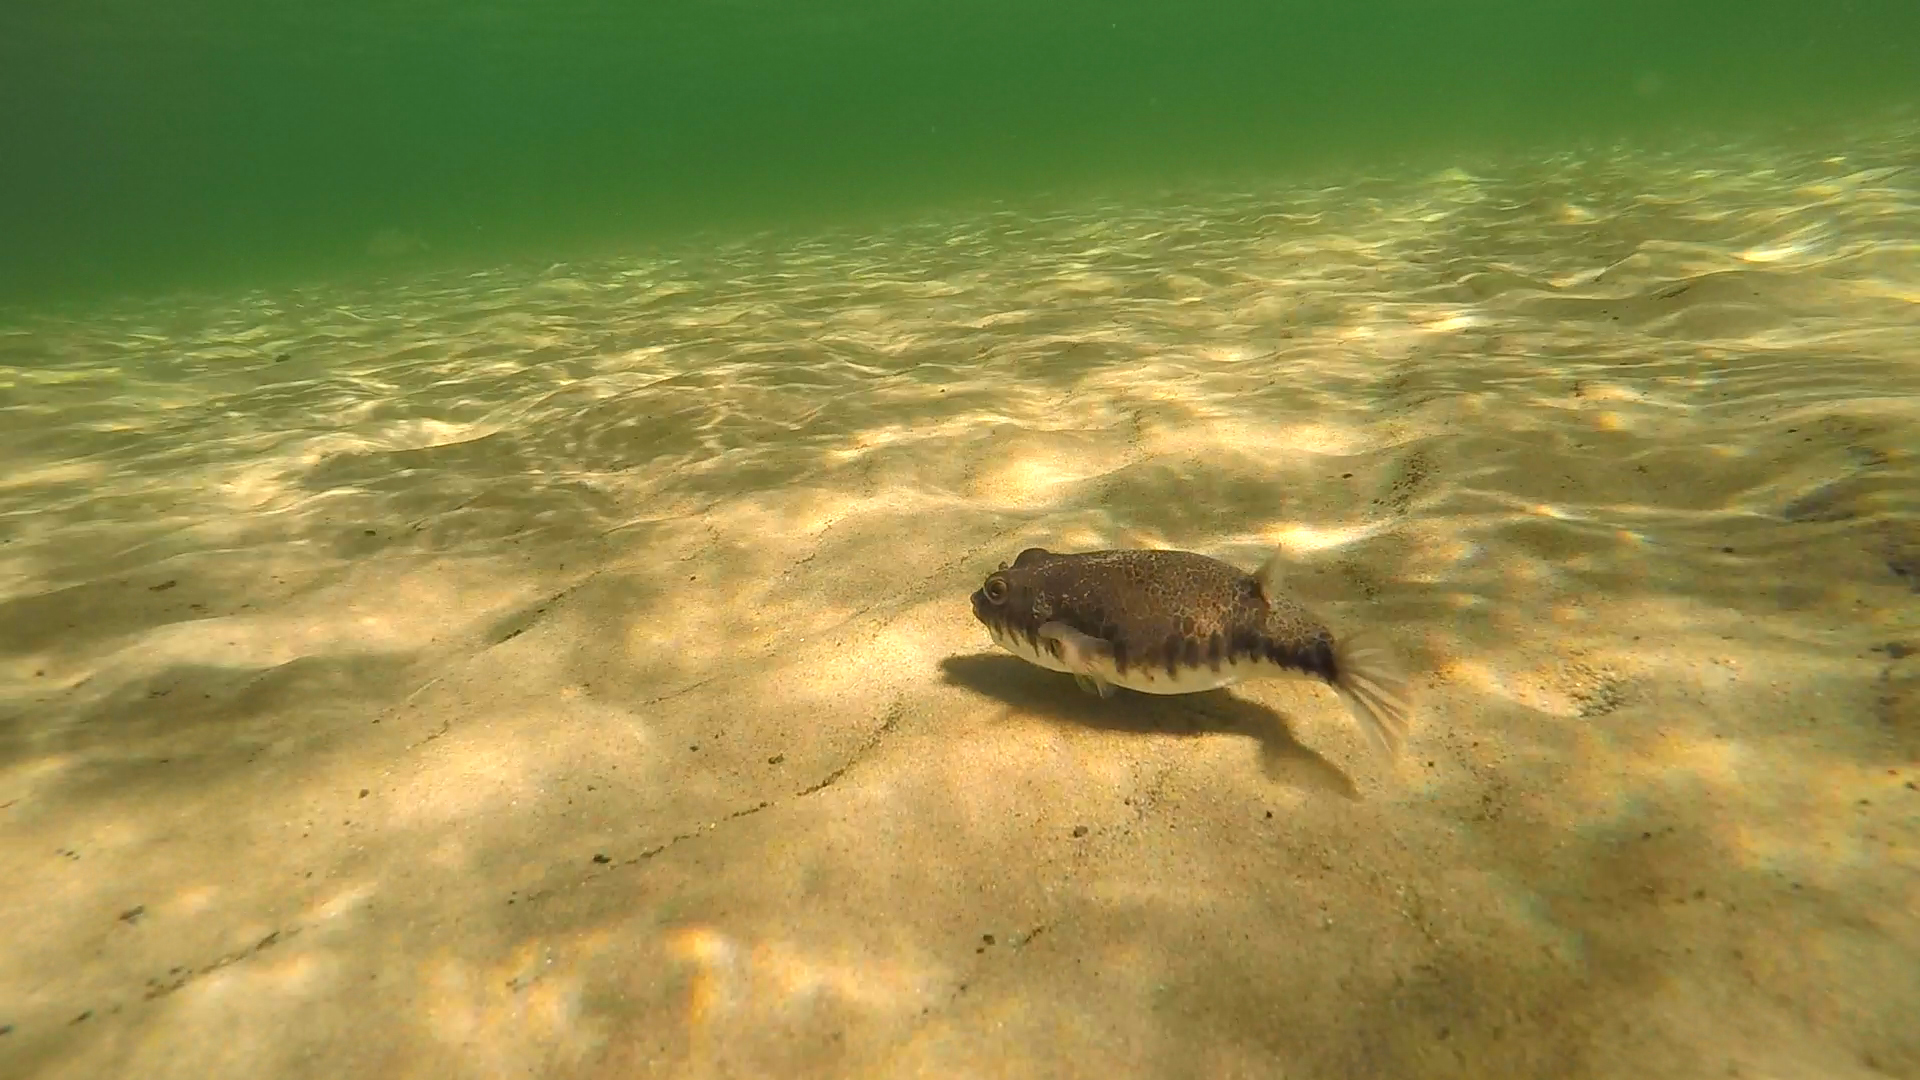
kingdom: Animalia
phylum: Chordata
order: Tetraodontiformes
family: Tetraodontidae
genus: Tetractenos
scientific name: Tetractenos hamiltoni
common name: Common toadfish
